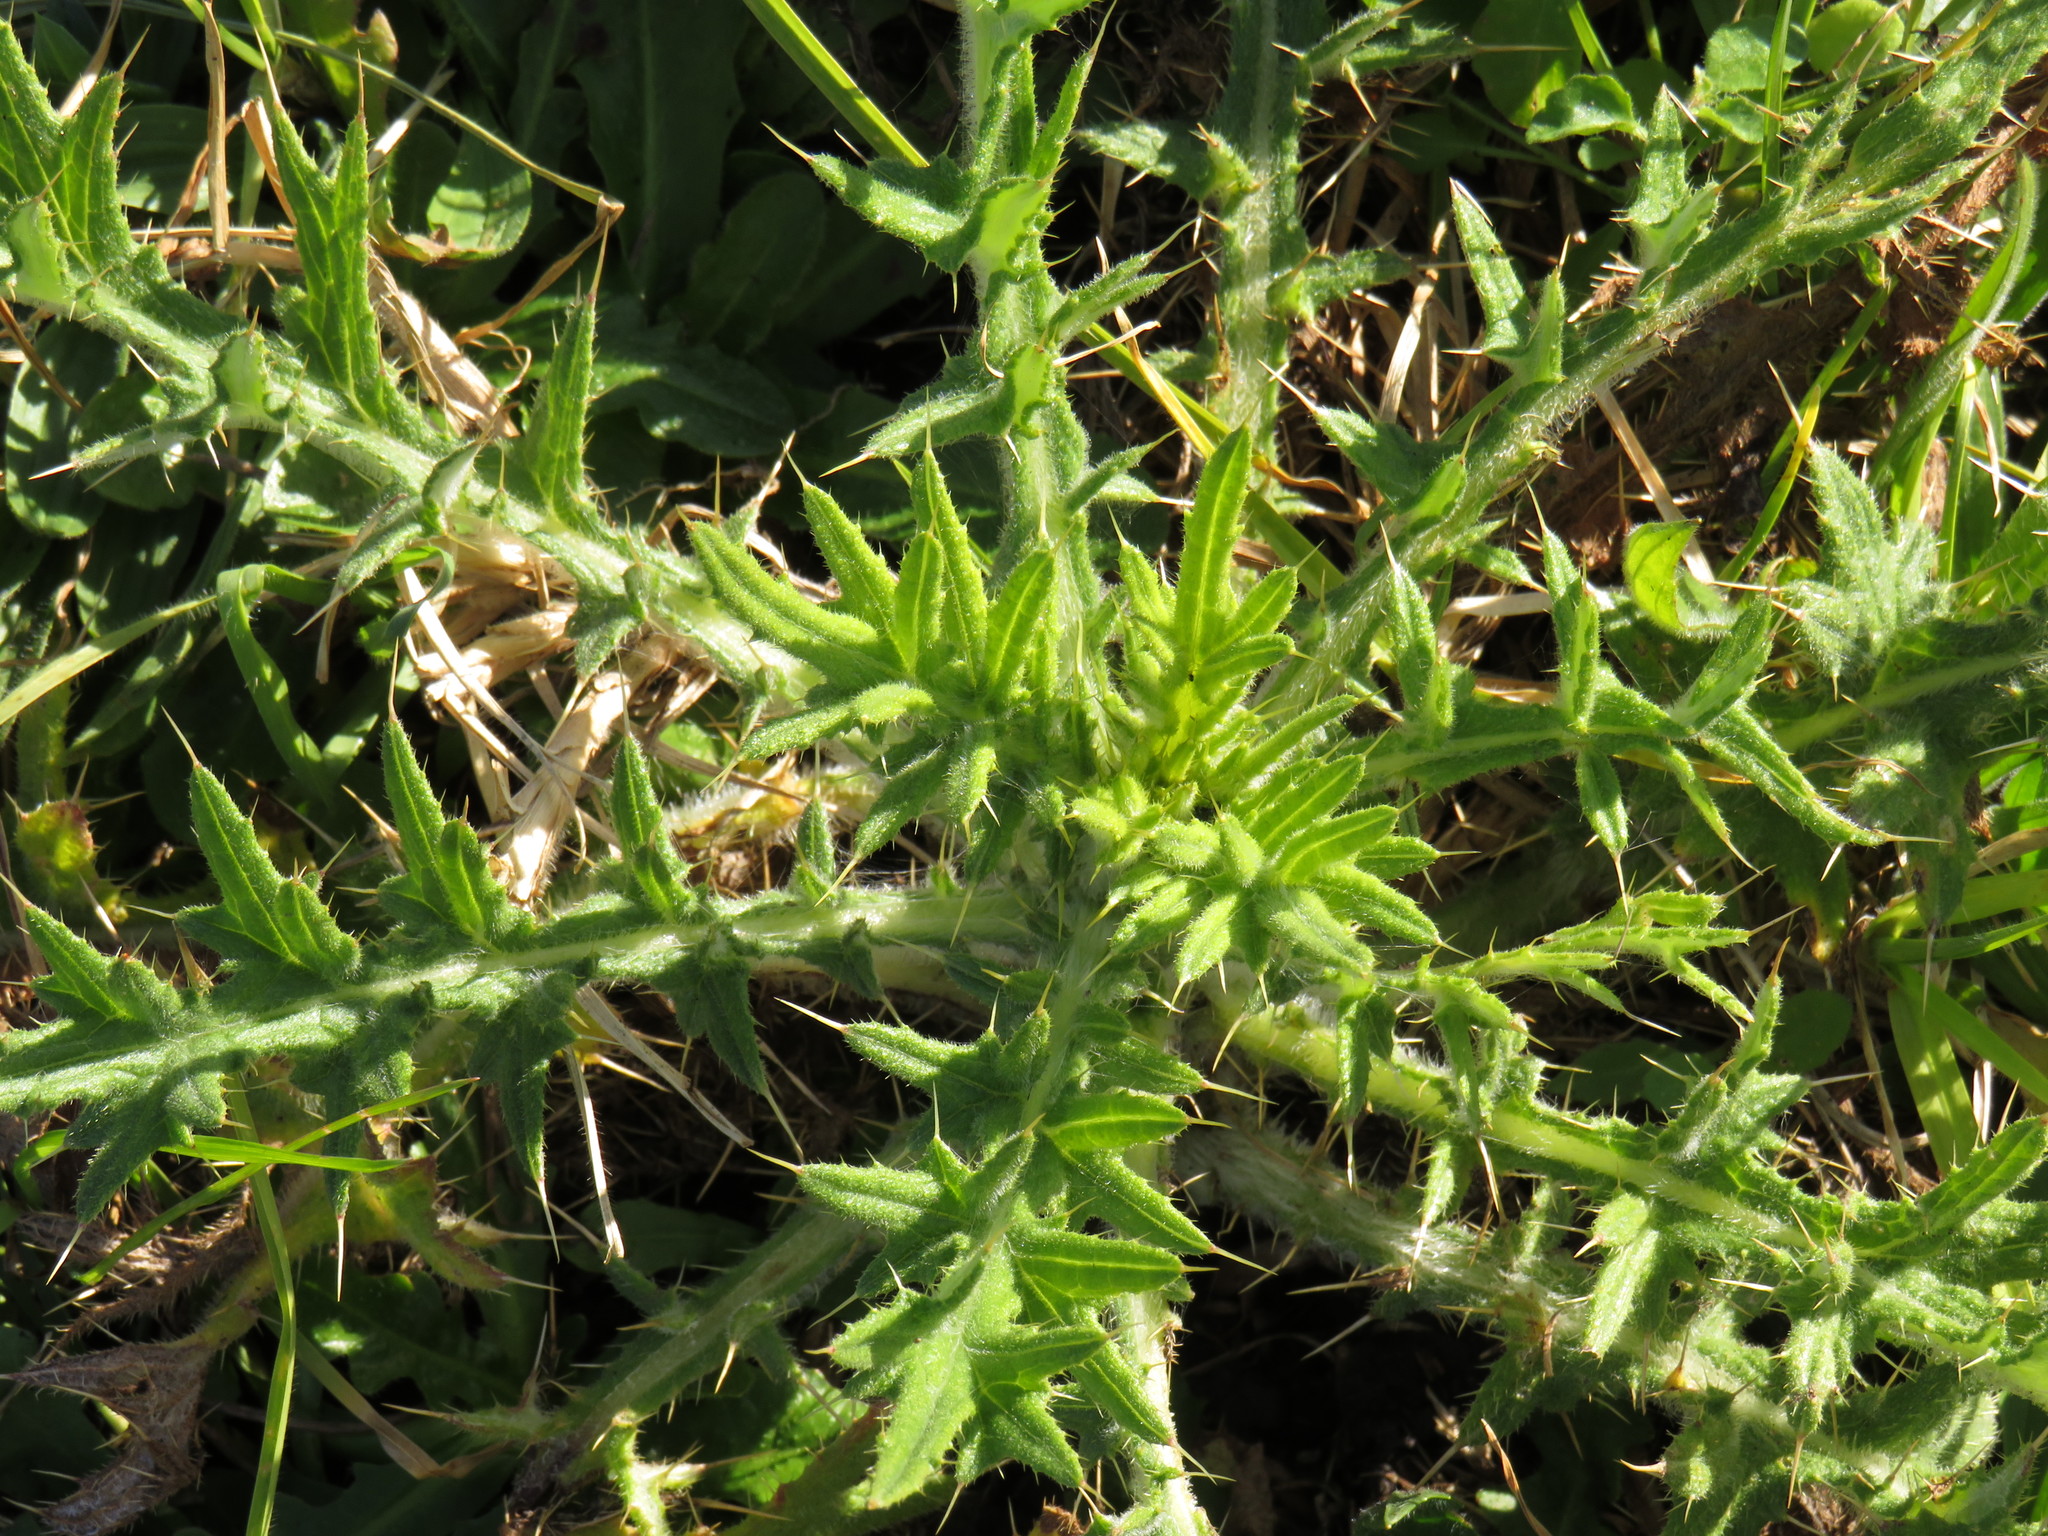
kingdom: Plantae
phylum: Tracheophyta
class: Magnoliopsida
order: Asterales
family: Asteraceae
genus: Cirsium
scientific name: Cirsium vulgare
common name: Bull thistle
